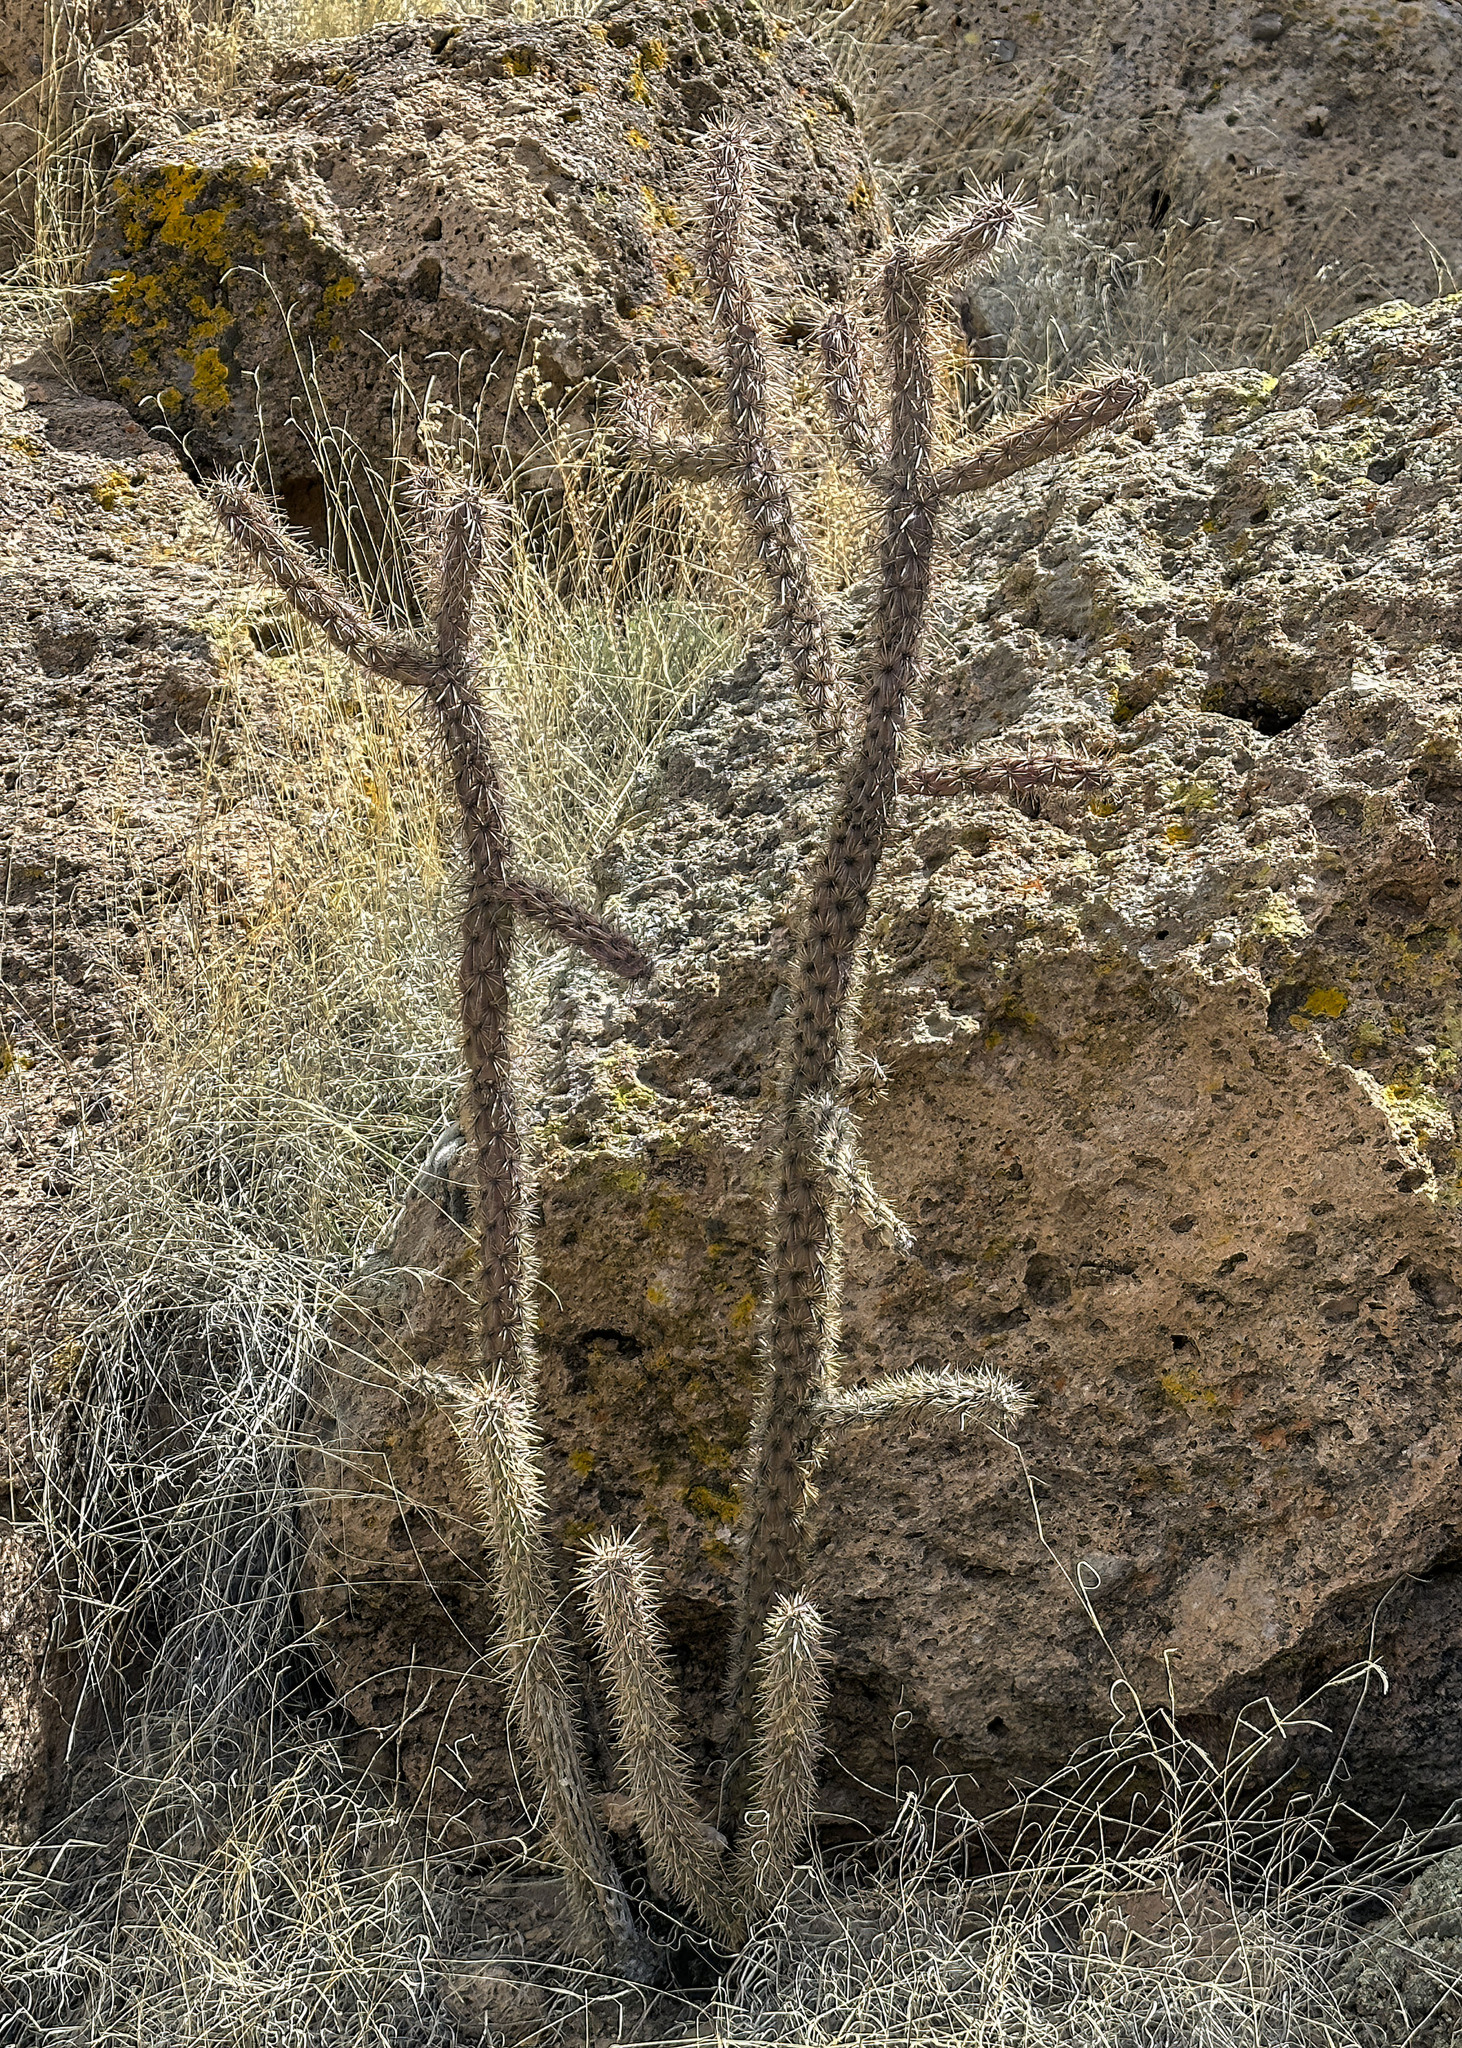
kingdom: Plantae
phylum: Tracheophyta
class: Magnoliopsida
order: Caryophyllales
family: Cactaceae
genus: Cylindropuntia
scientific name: Cylindropuntia imbricata
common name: Candelabrum cactus
